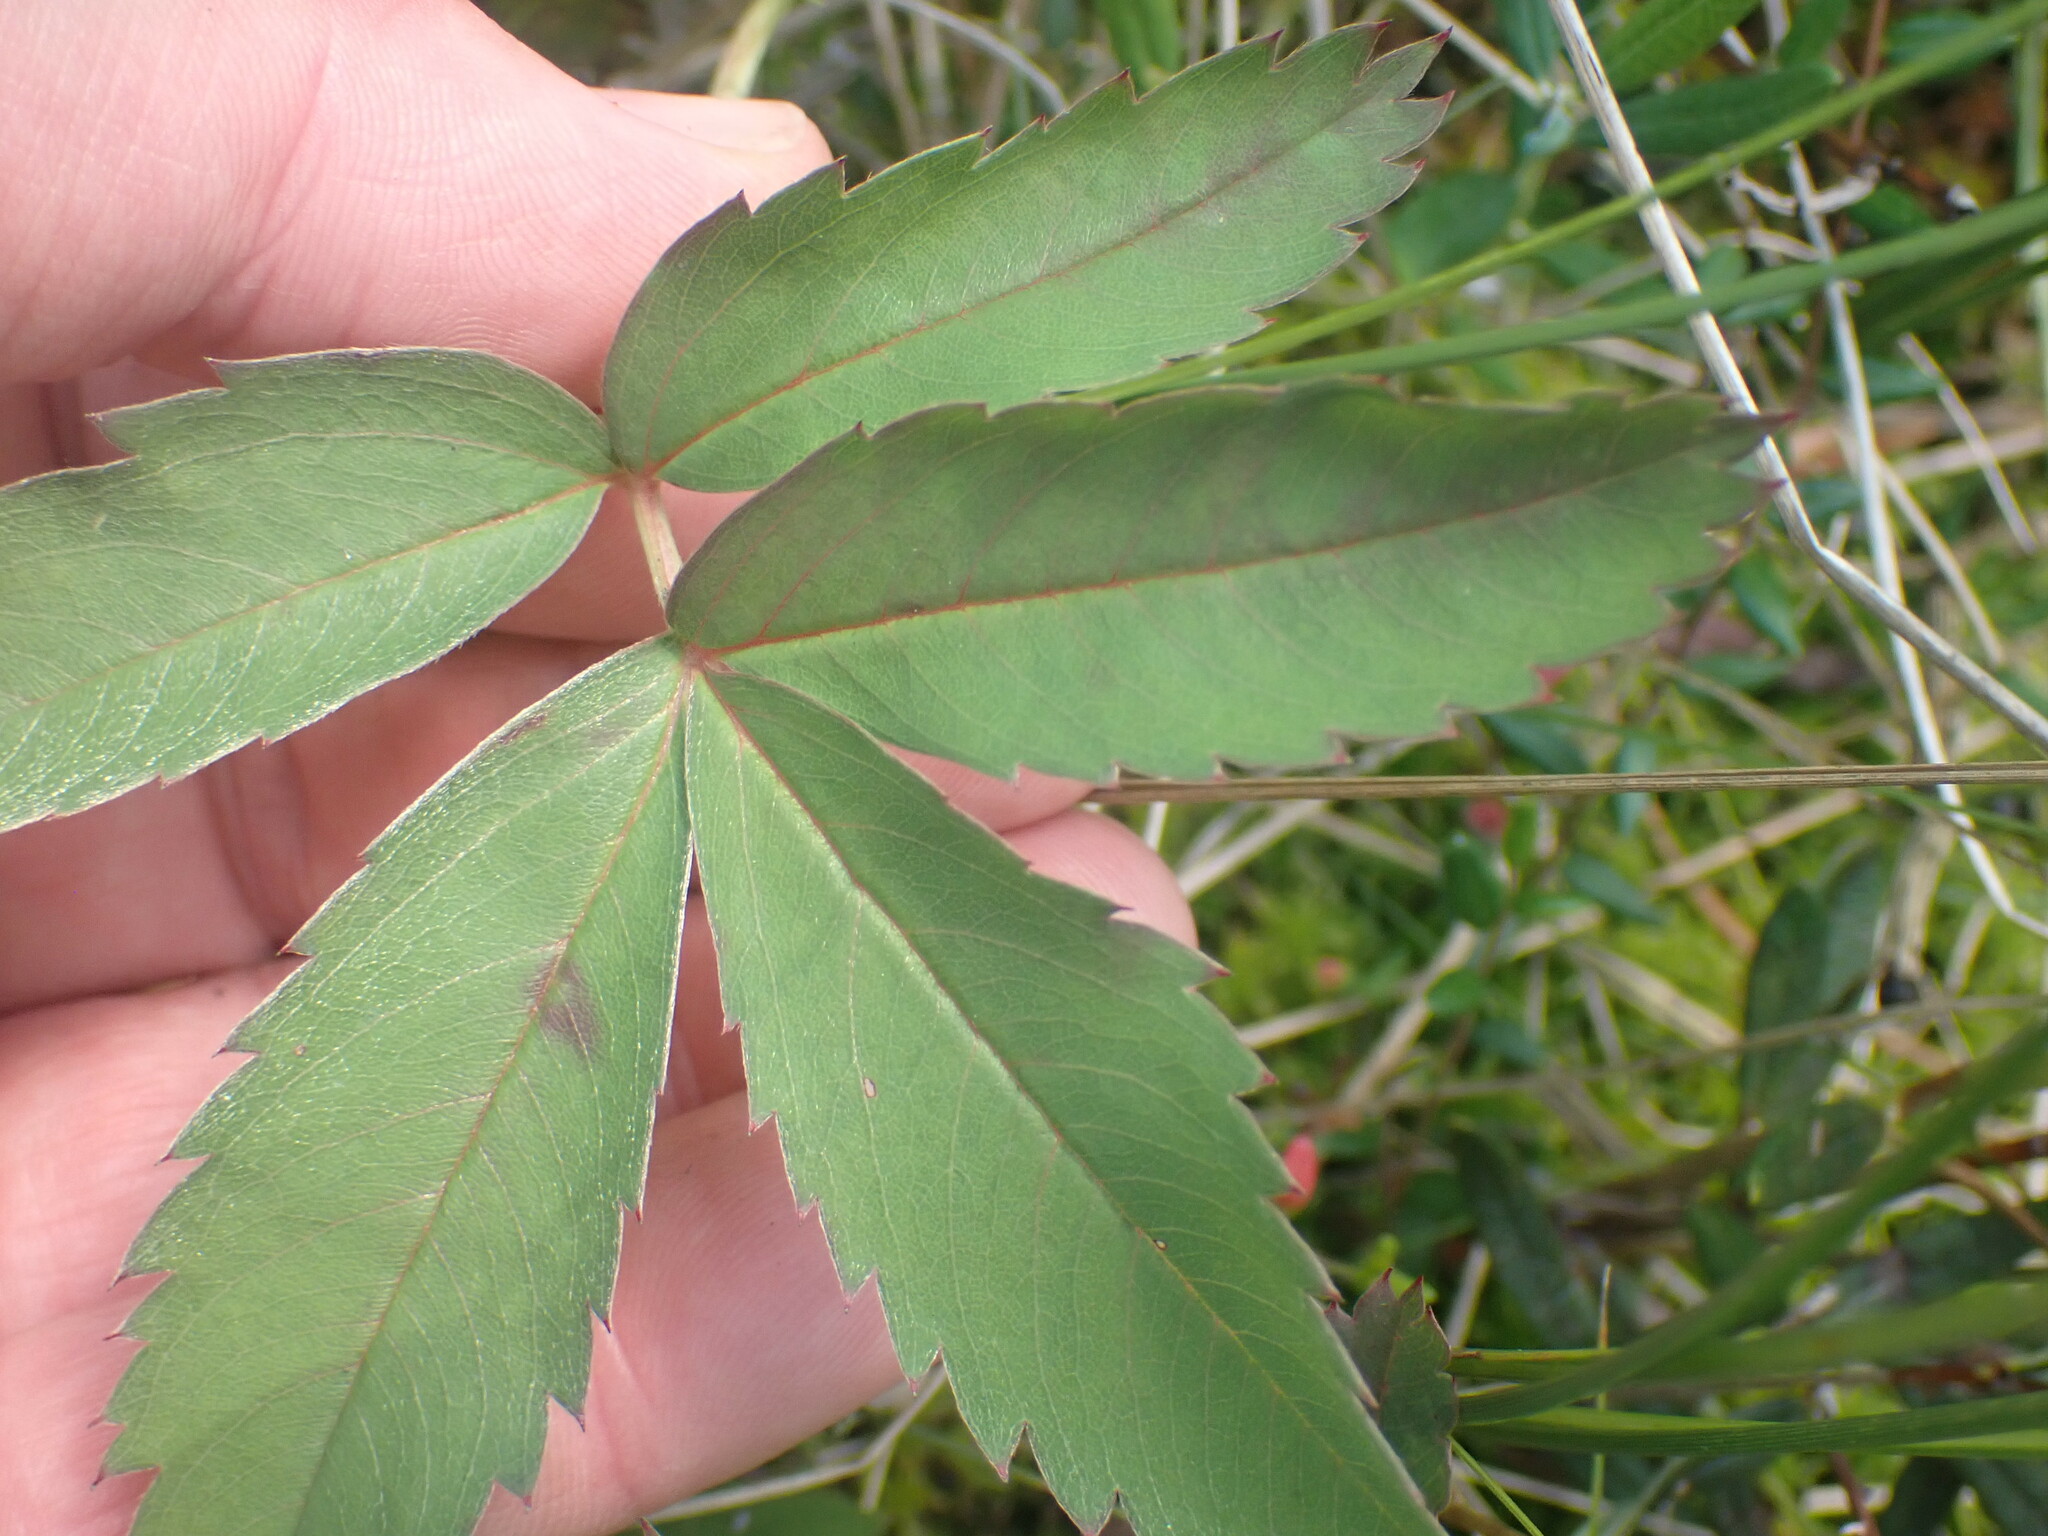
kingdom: Plantae
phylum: Tracheophyta
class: Magnoliopsida
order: Rosales
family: Rosaceae
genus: Comarum
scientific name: Comarum palustre
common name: Marsh cinquefoil
